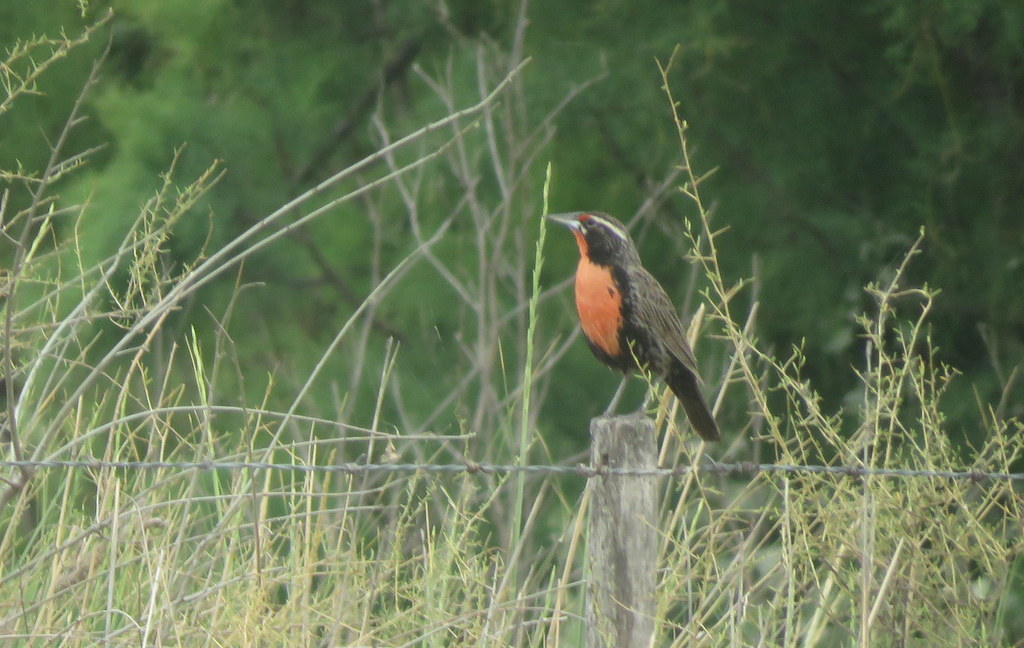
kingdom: Animalia
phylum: Chordata
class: Aves
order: Passeriformes
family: Icteridae
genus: Sturnella
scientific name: Sturnella loyca
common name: Long-tailed meadowlark
